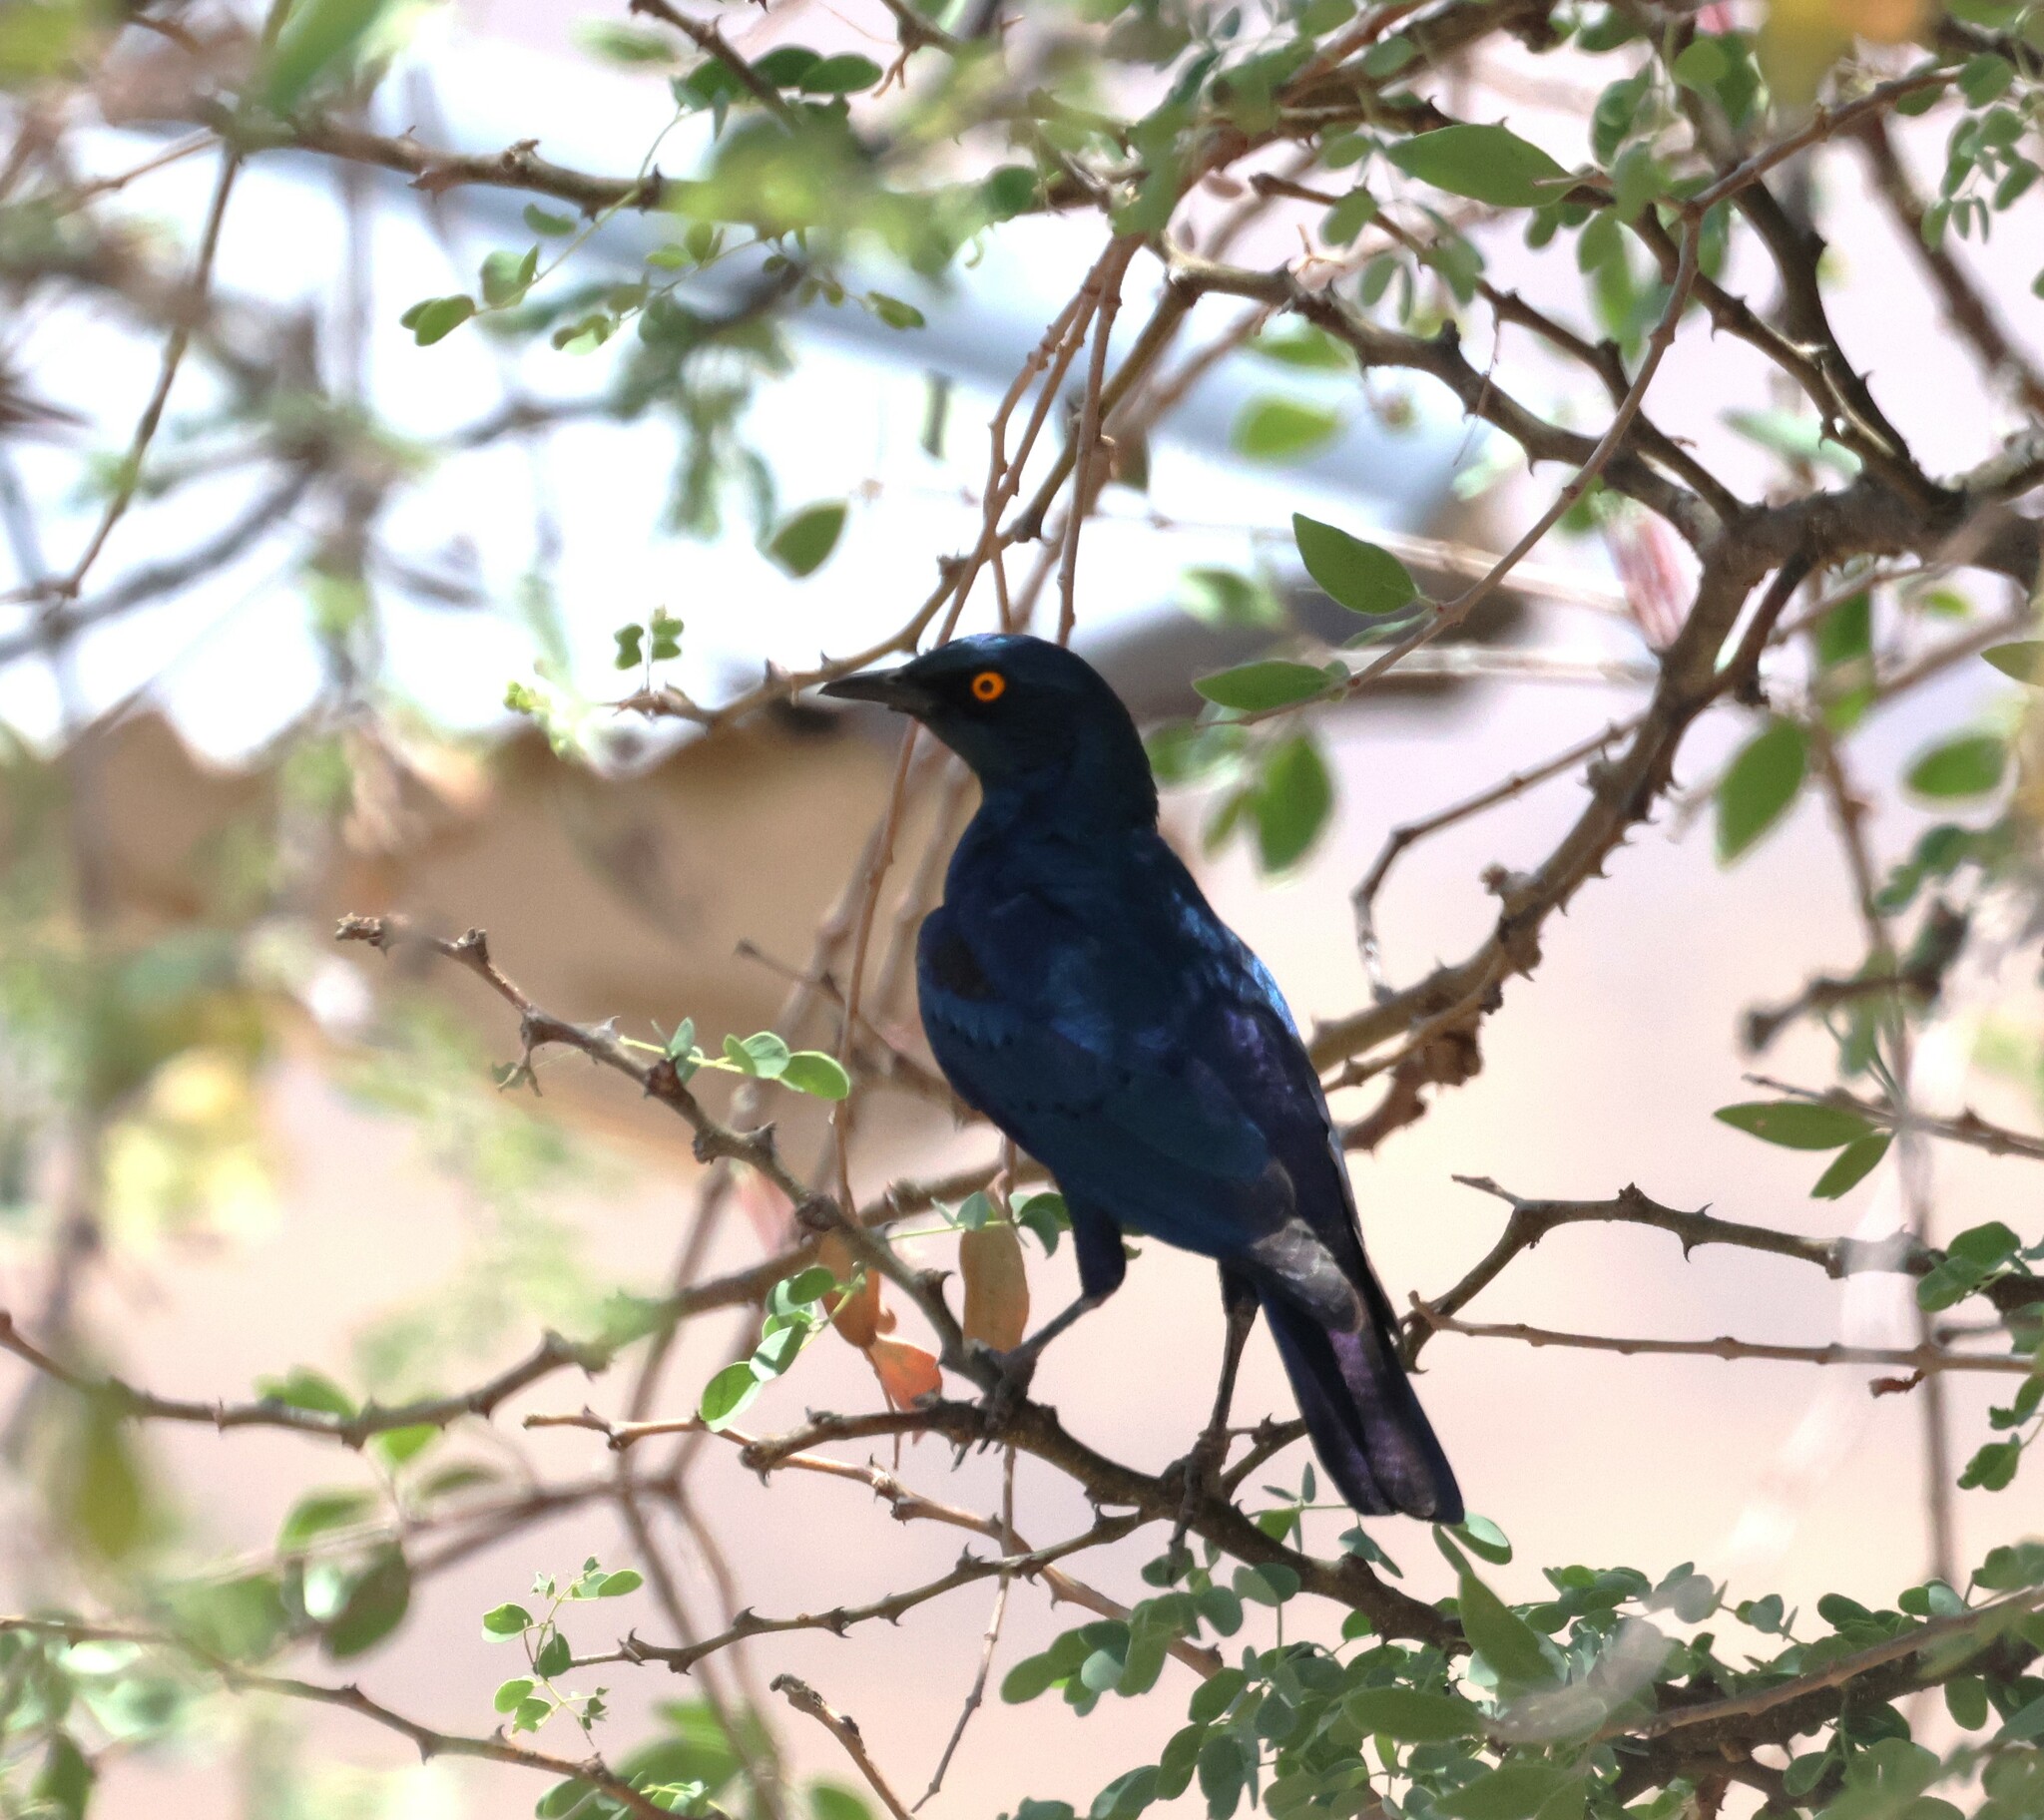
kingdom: Animalia
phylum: Chordata
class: Aves
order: Passeriformes
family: Sturnidae
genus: Lamprotornis
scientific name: Lamprotornis nitens
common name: Cape starling
